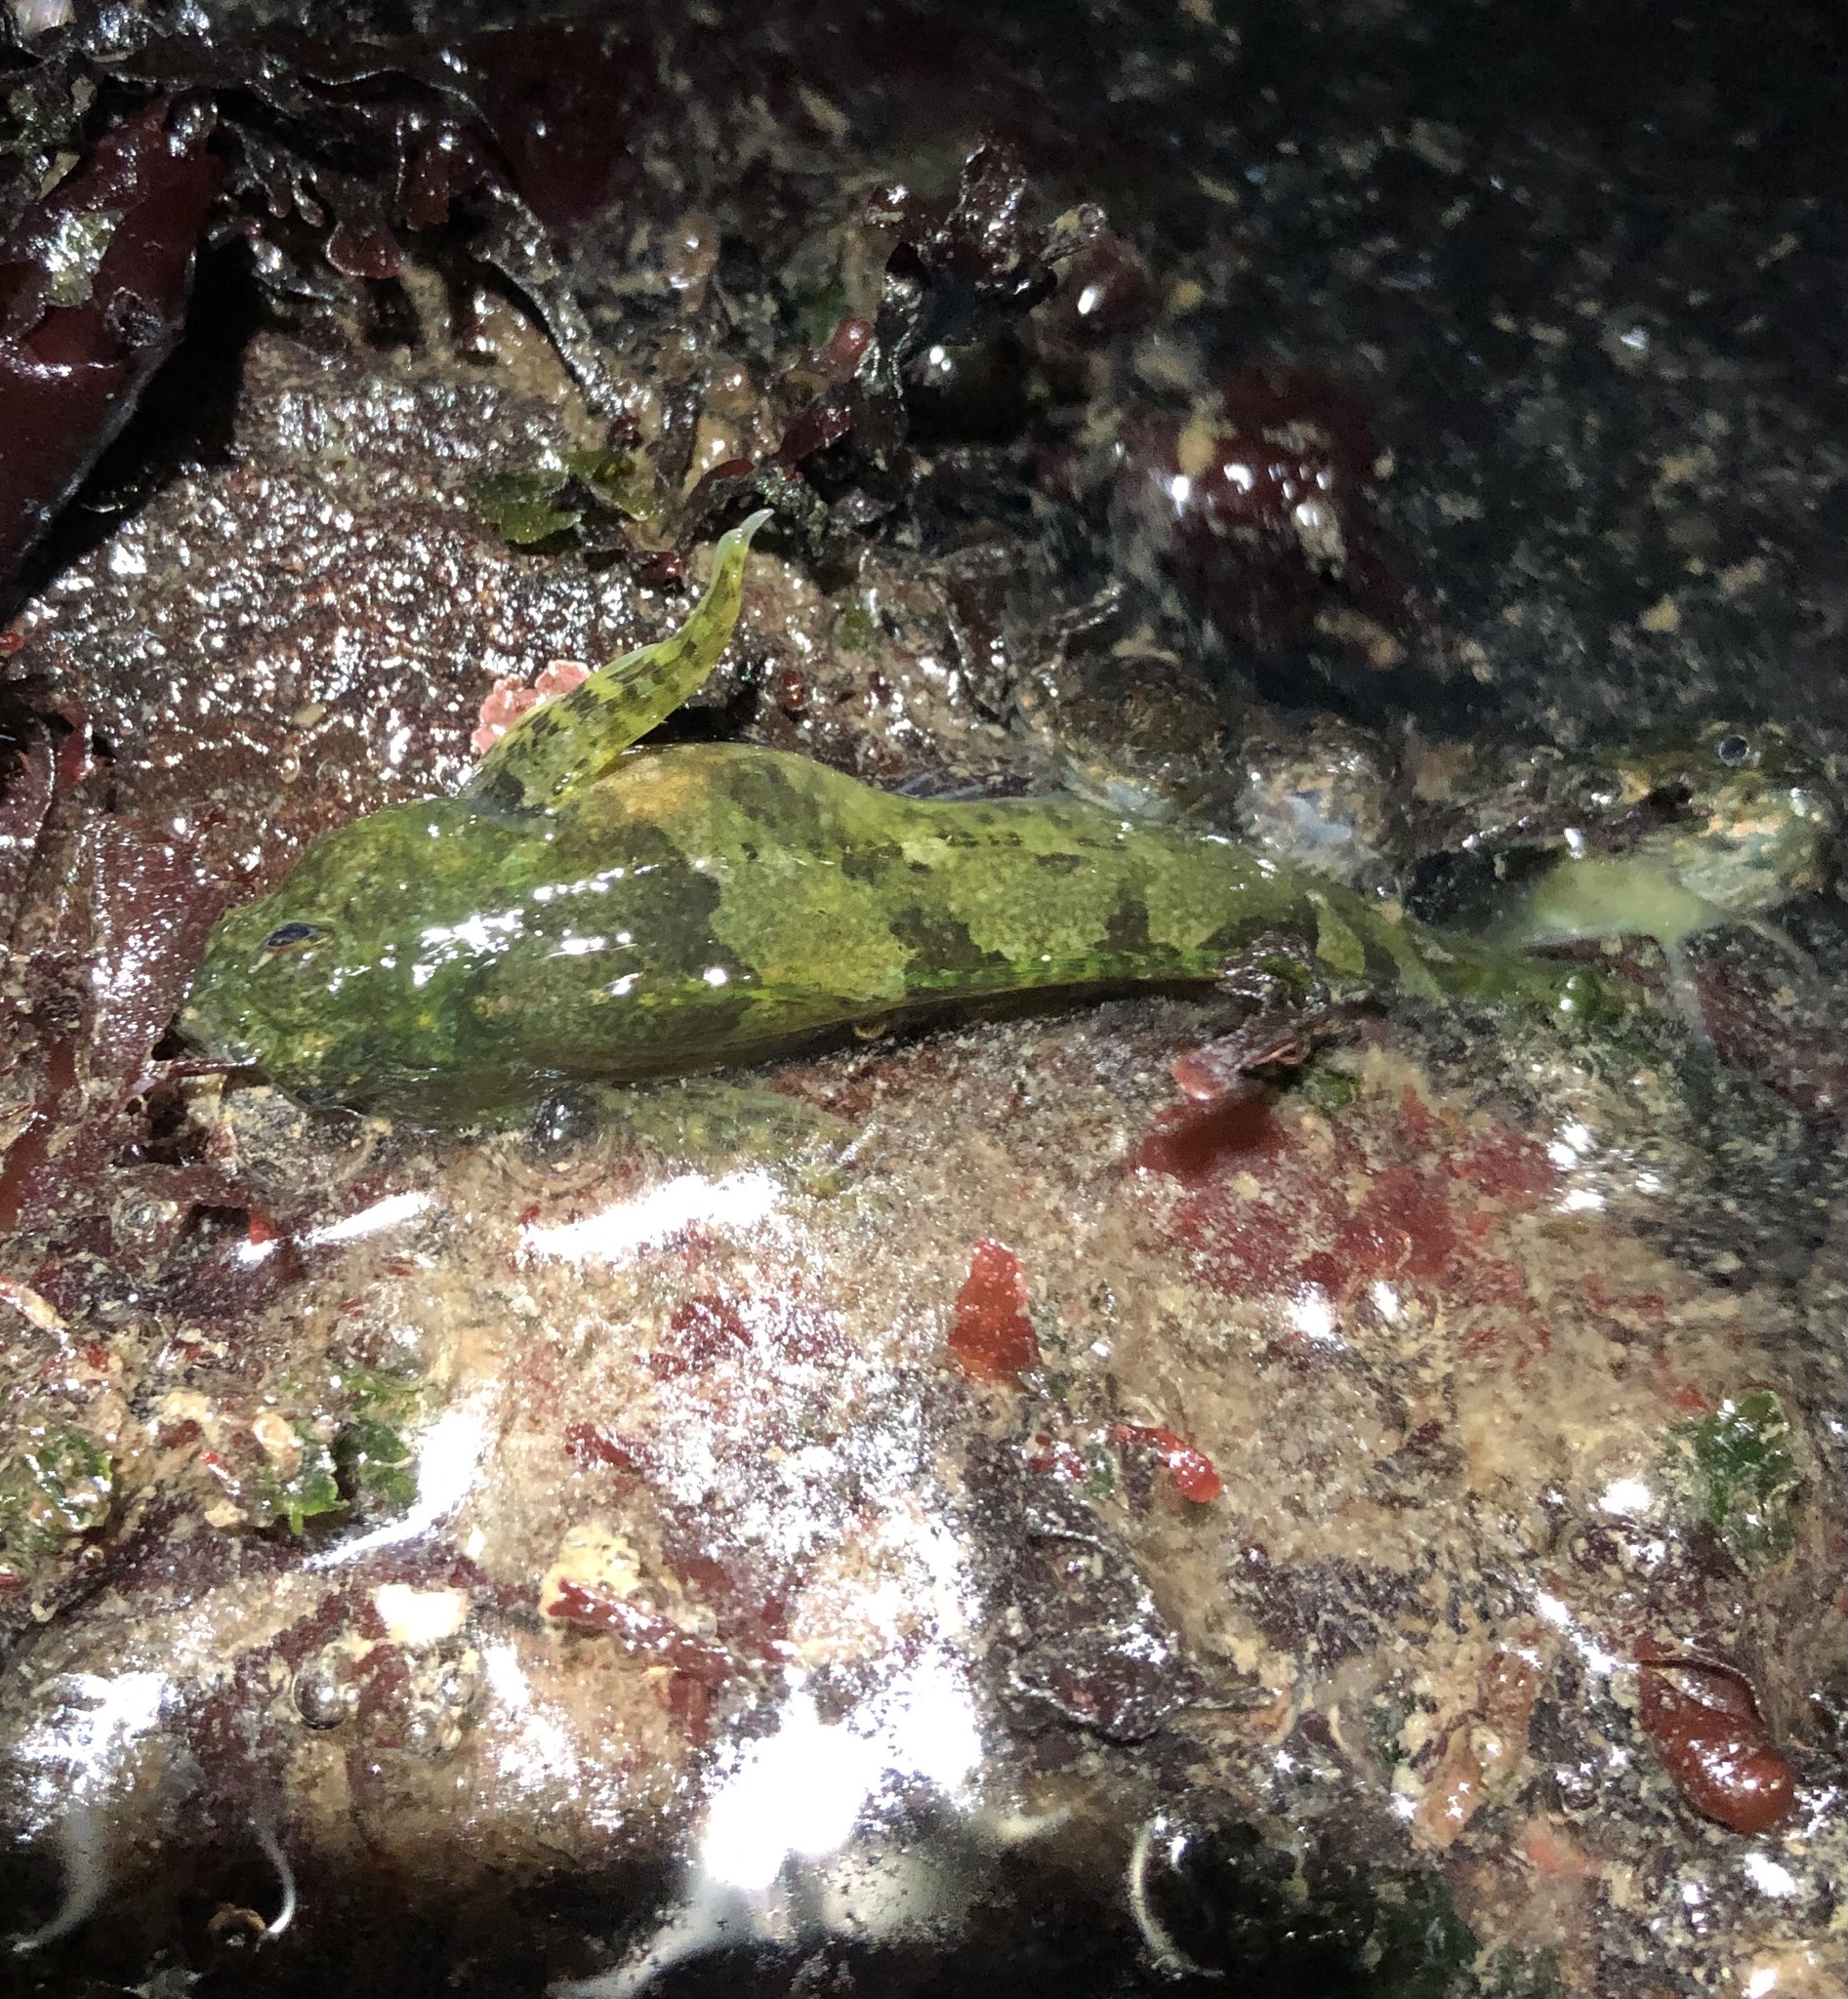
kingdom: Animalia
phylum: Chordata
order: Scorpaeniformes
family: Cottidae
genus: Oligocottus
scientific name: Oligocottus maculosus
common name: Tidepool sculpin
